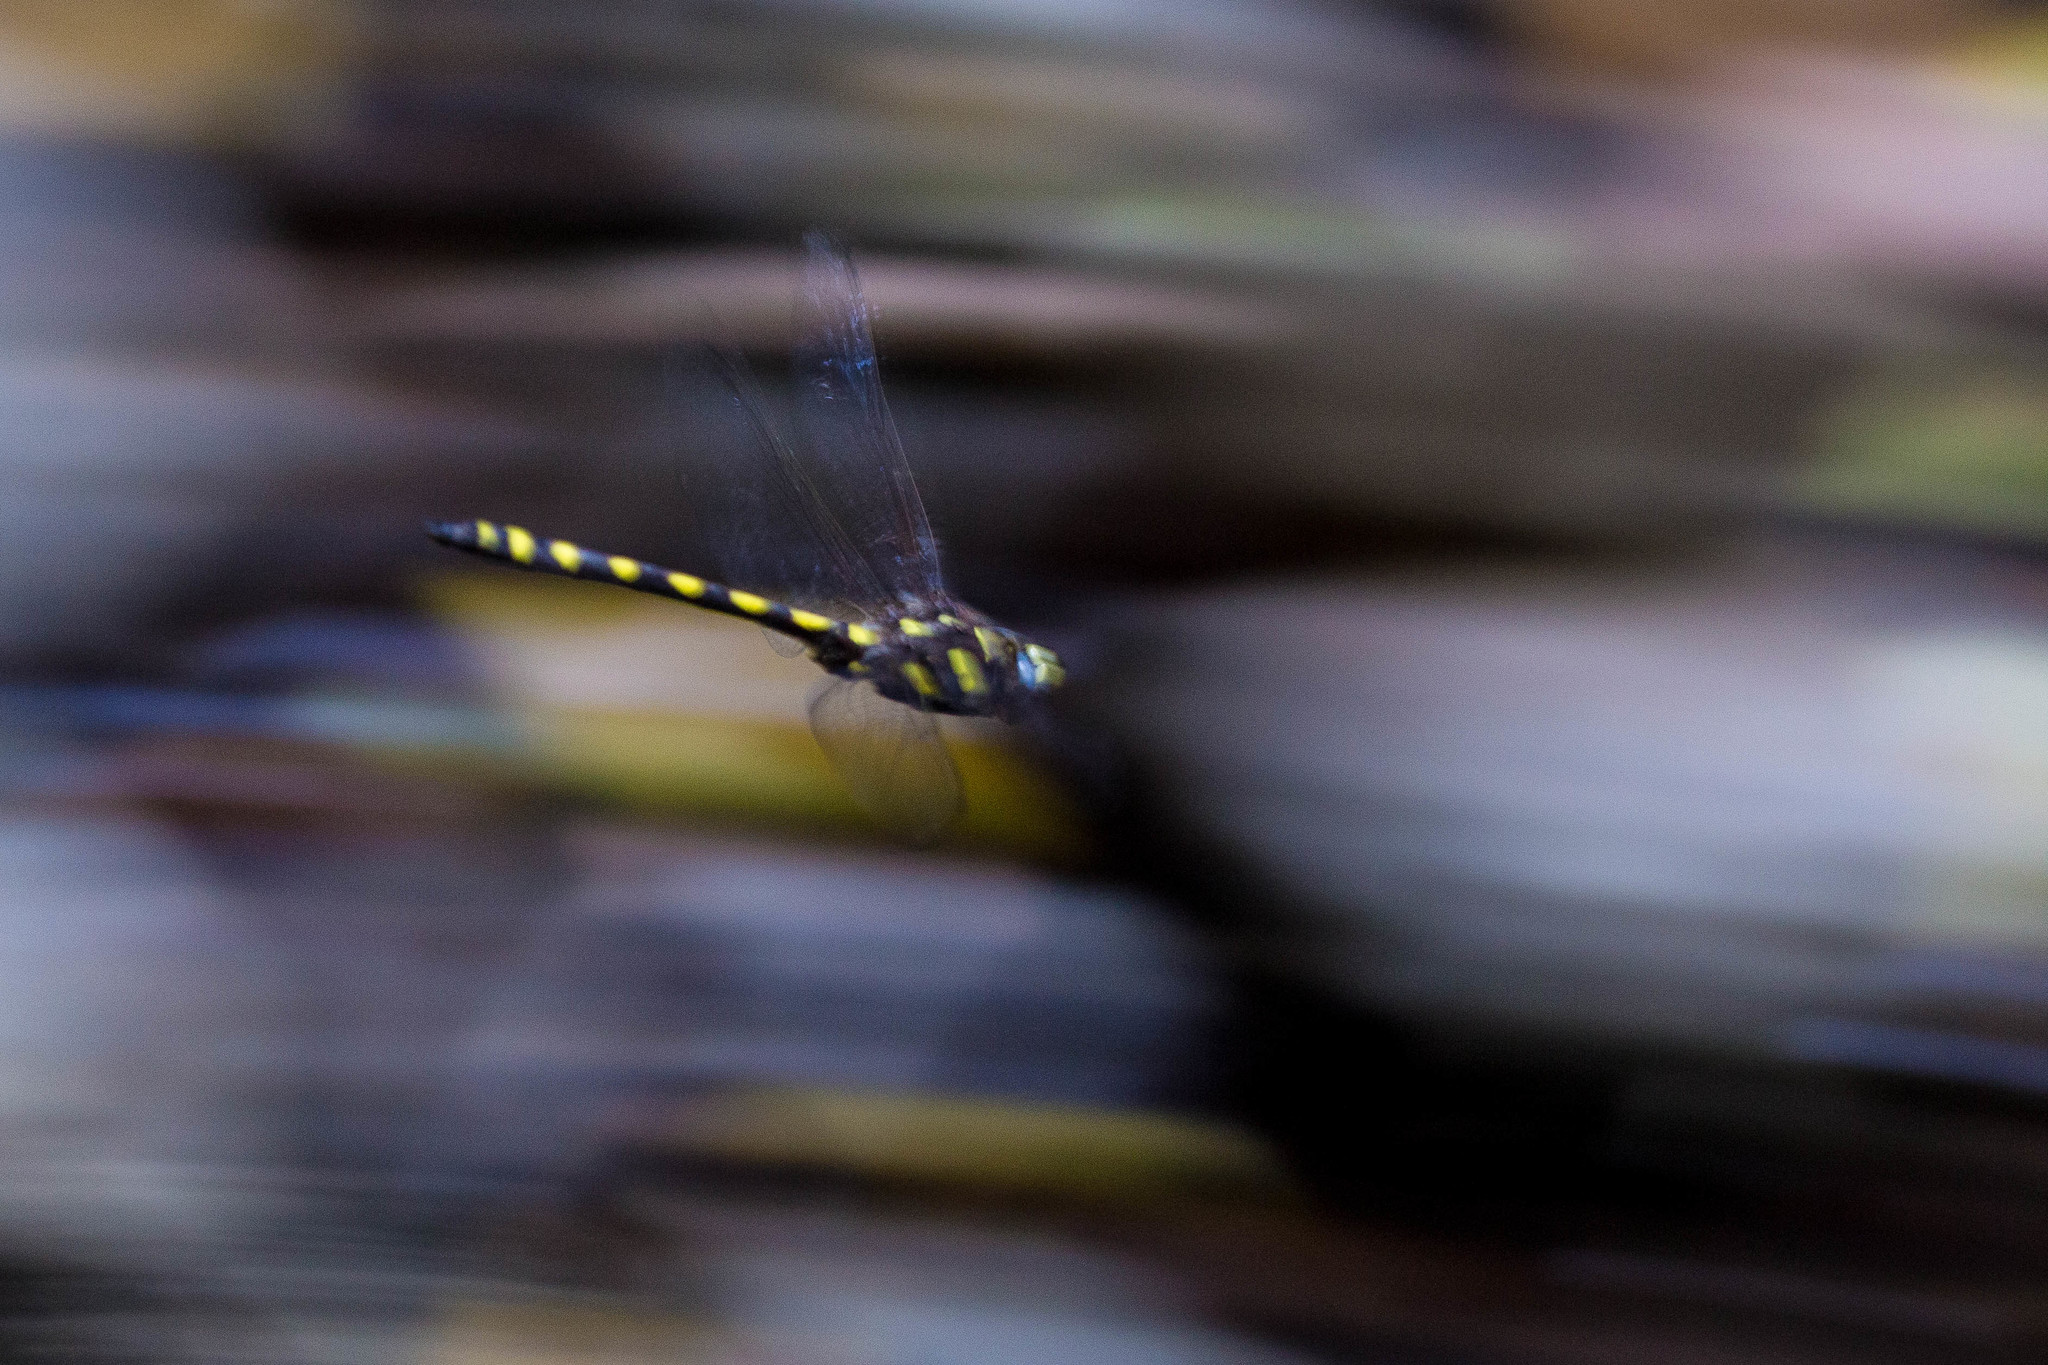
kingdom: Animalia
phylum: Arthropoda
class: Insecta
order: Odonata
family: Cordulegastridae
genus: Cordulegaster
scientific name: Cordulegaster dorsalis
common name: Pacific spiketail
